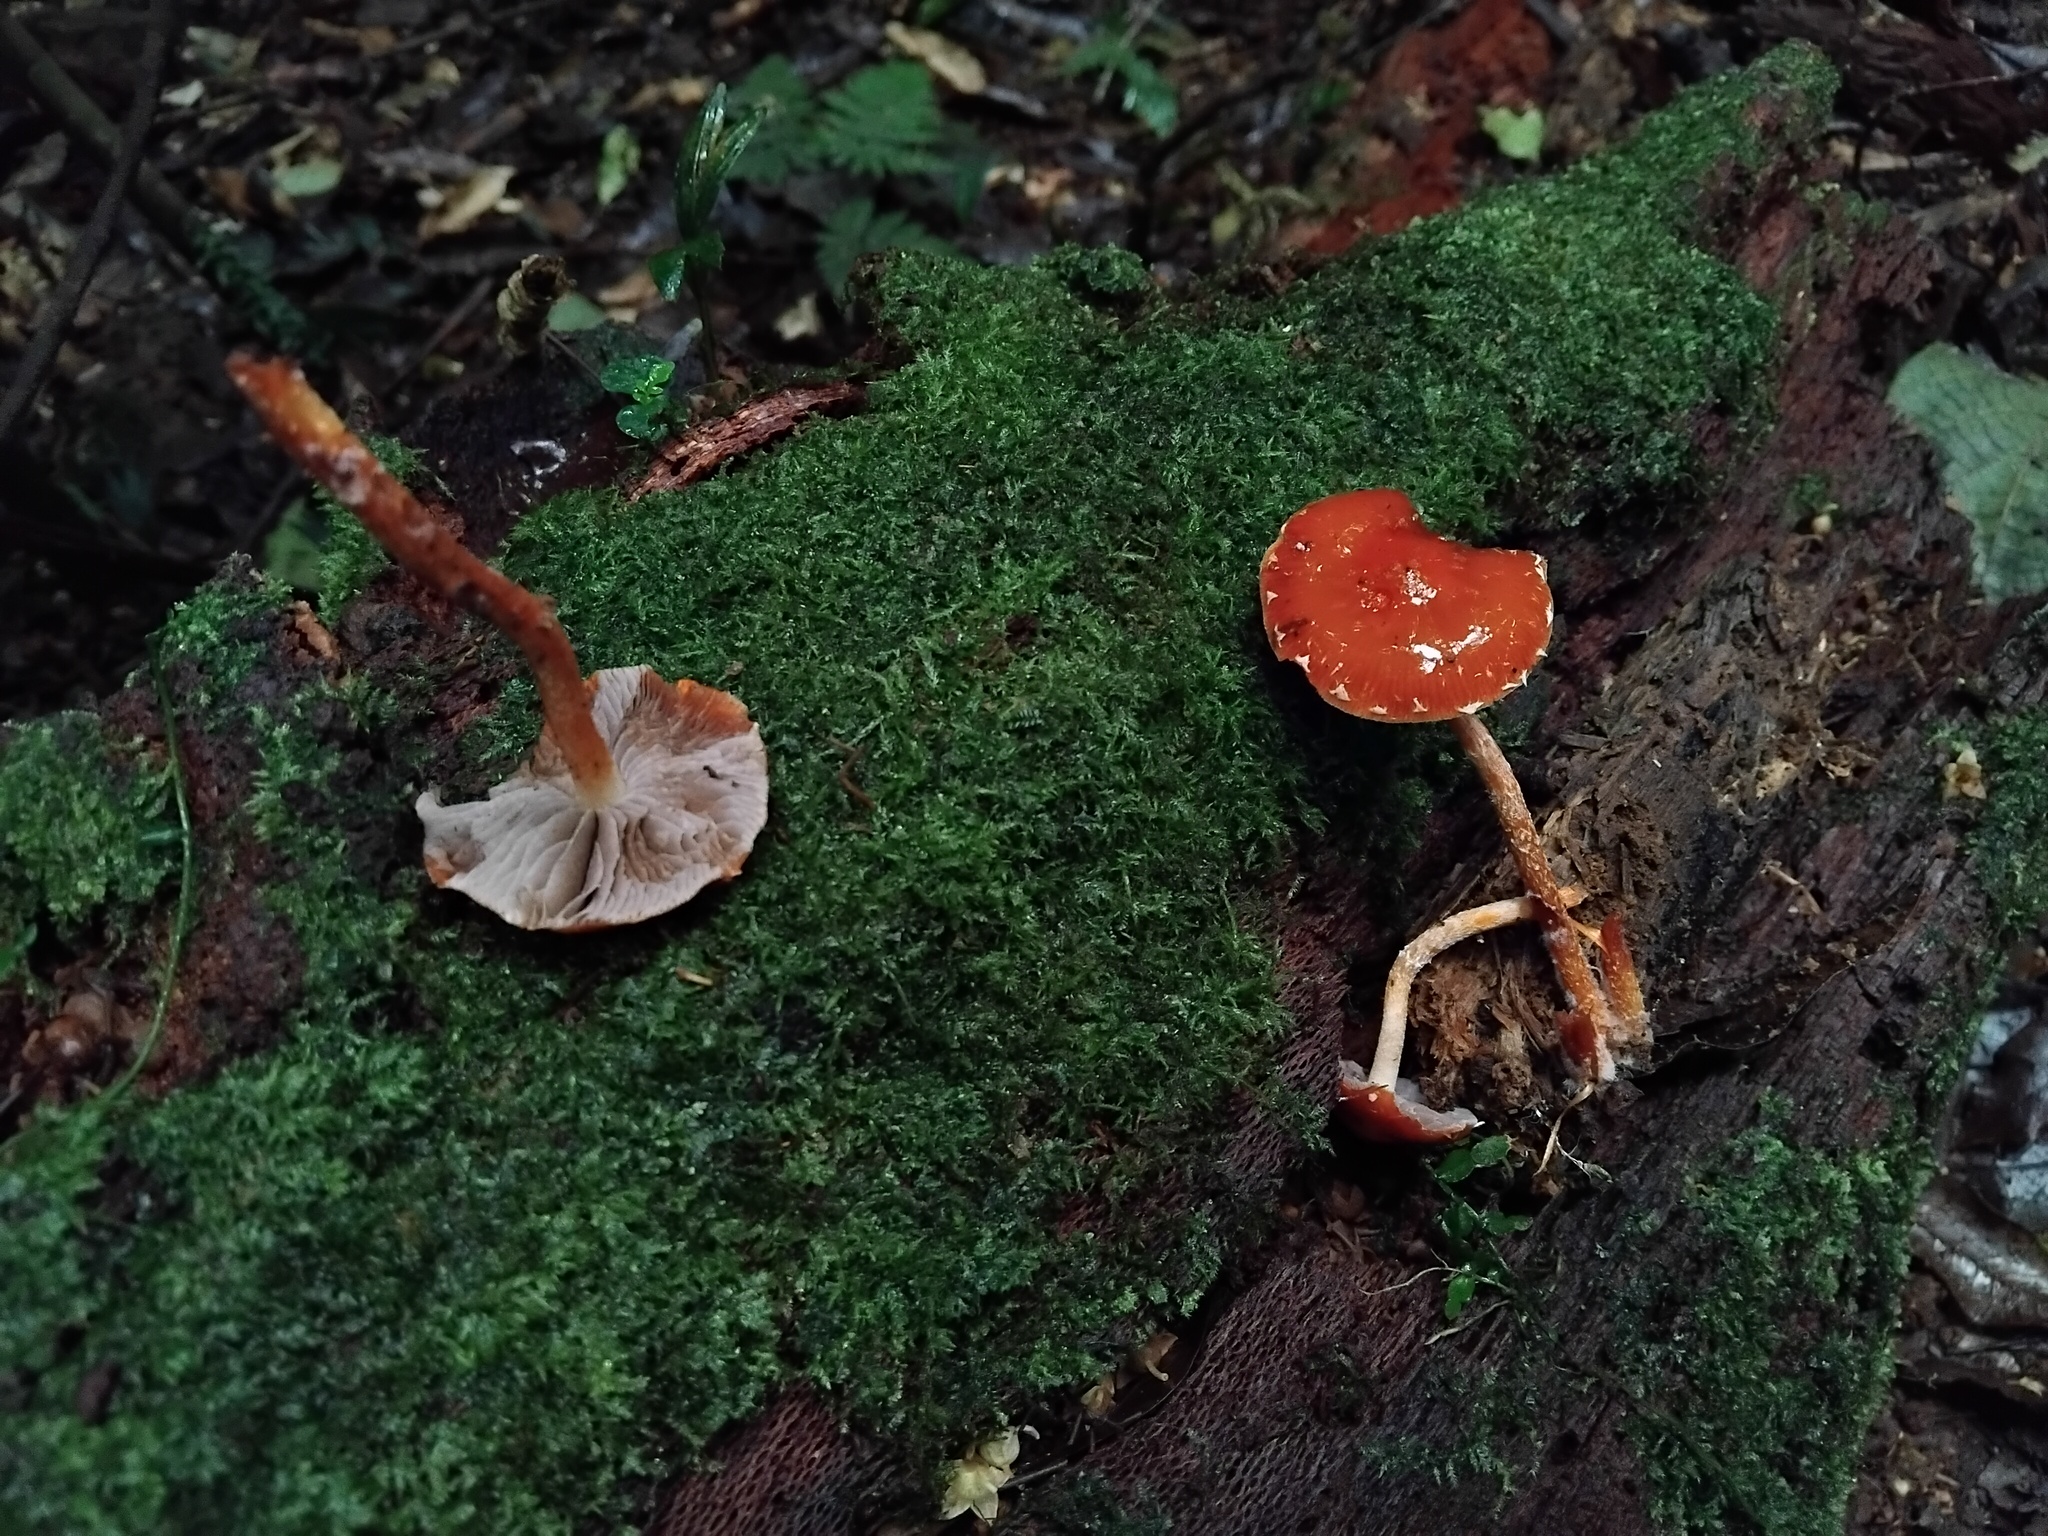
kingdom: Fungi
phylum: Basidiomycota
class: Agaricomycetes
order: Agaricales
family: Strophariaceae
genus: Leratiomyces
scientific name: Leratiomyces ceres
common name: Redlead roundhead
